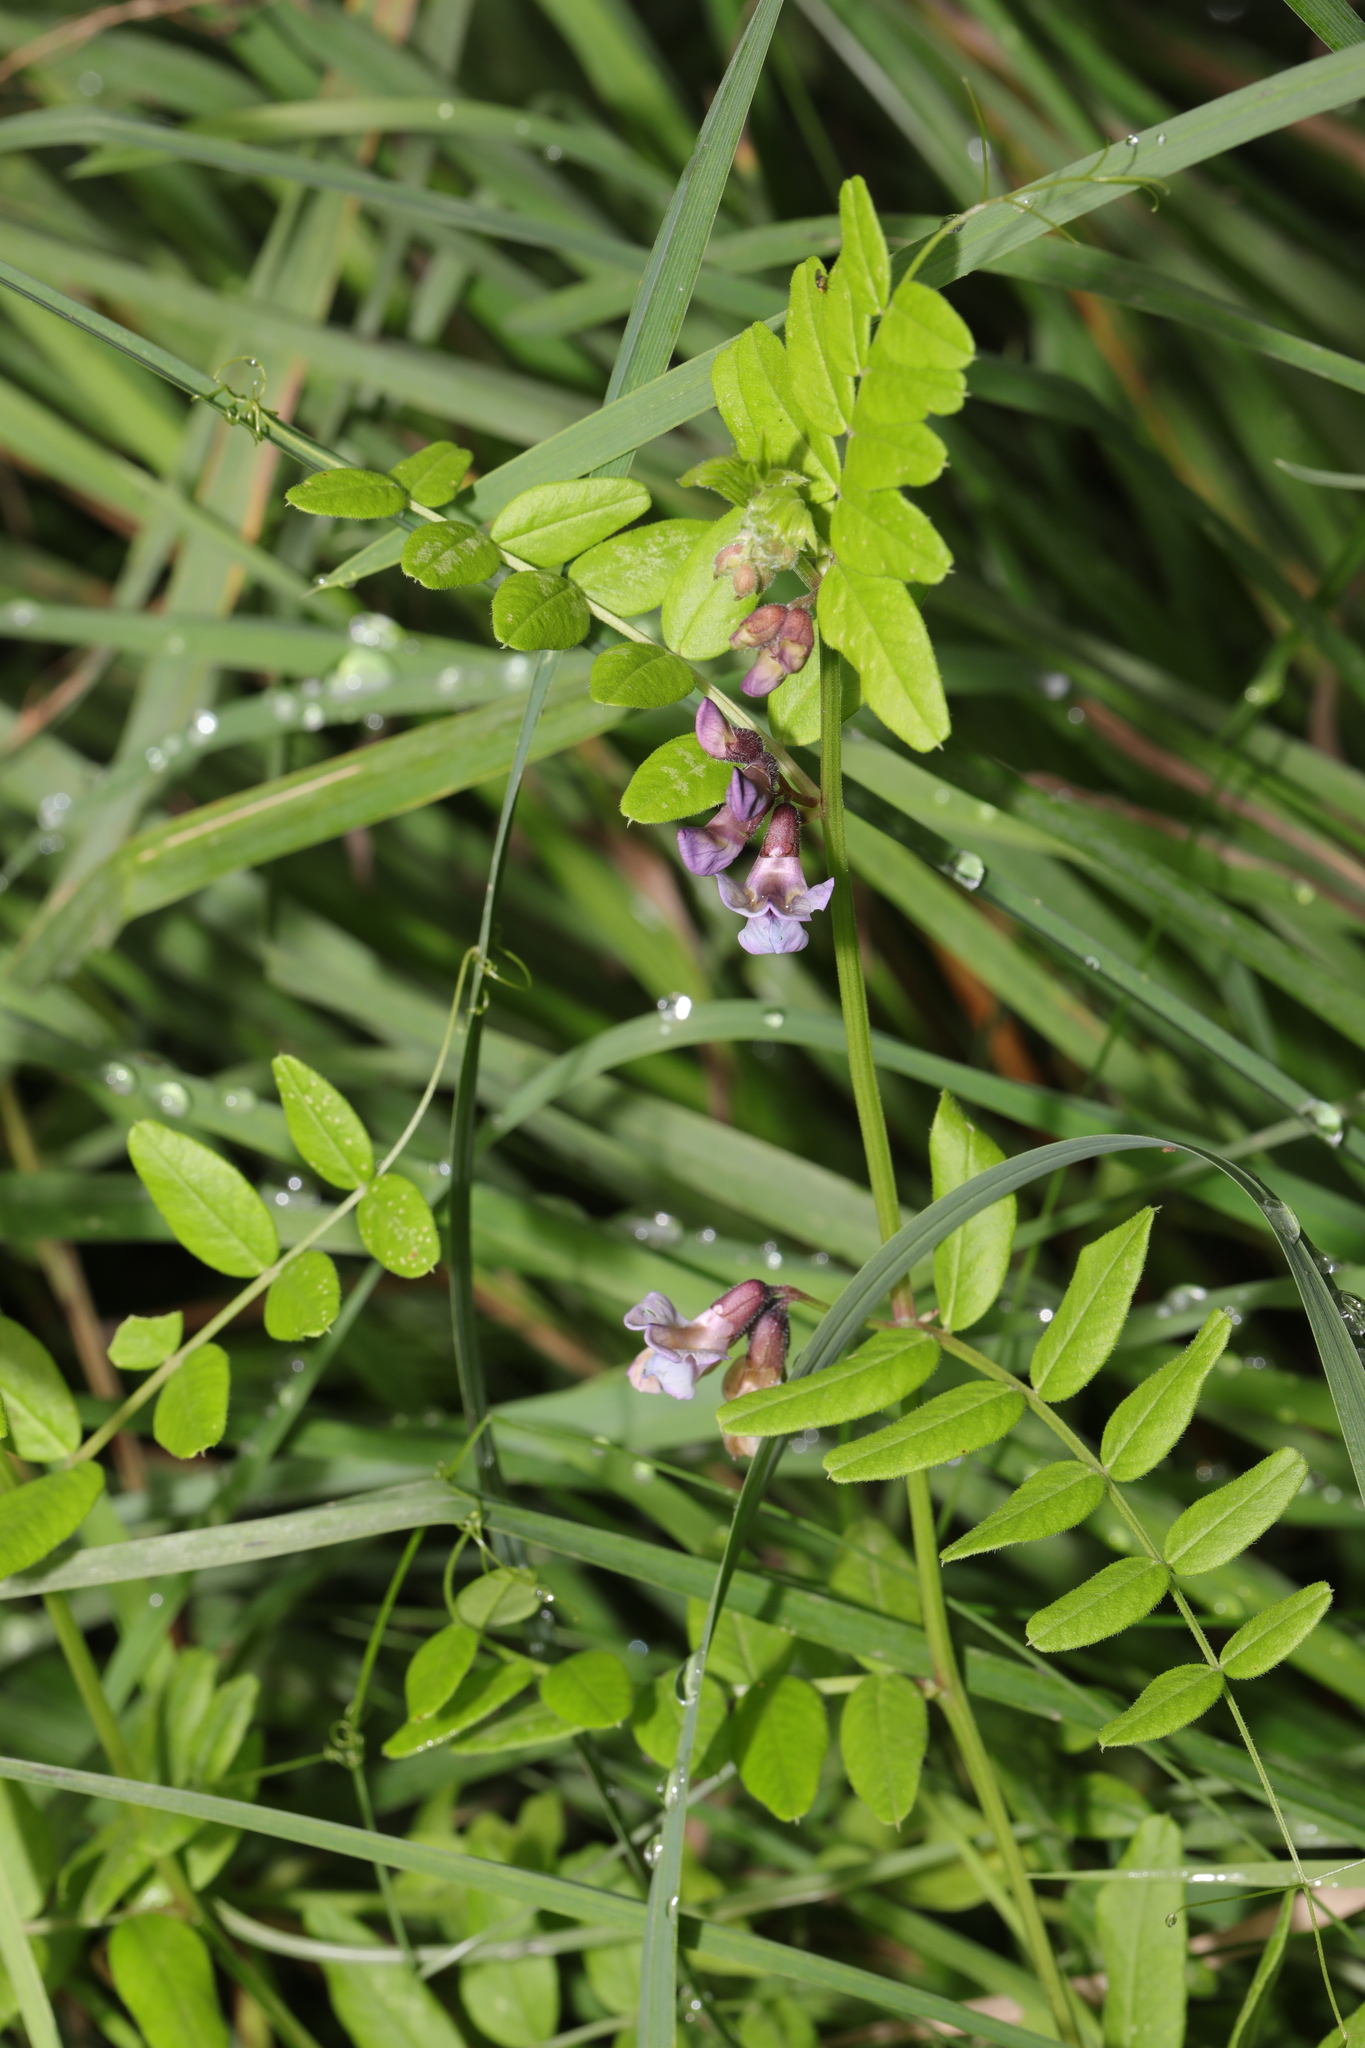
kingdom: Plantae
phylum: Tracheophyta
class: Magnoliopsida
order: Fabales
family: Fabaceae
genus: Vicia
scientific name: Vicia sepium
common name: Bush vetch
